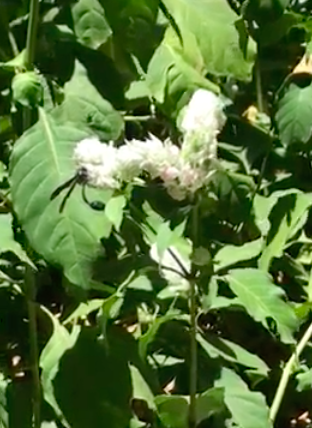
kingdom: Animalia
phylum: Arthropoda
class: Insecta
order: Hymenoptera
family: Eumenidae
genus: Phimenes
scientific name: Phimenes curvatus
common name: Black delta vespid wasp
